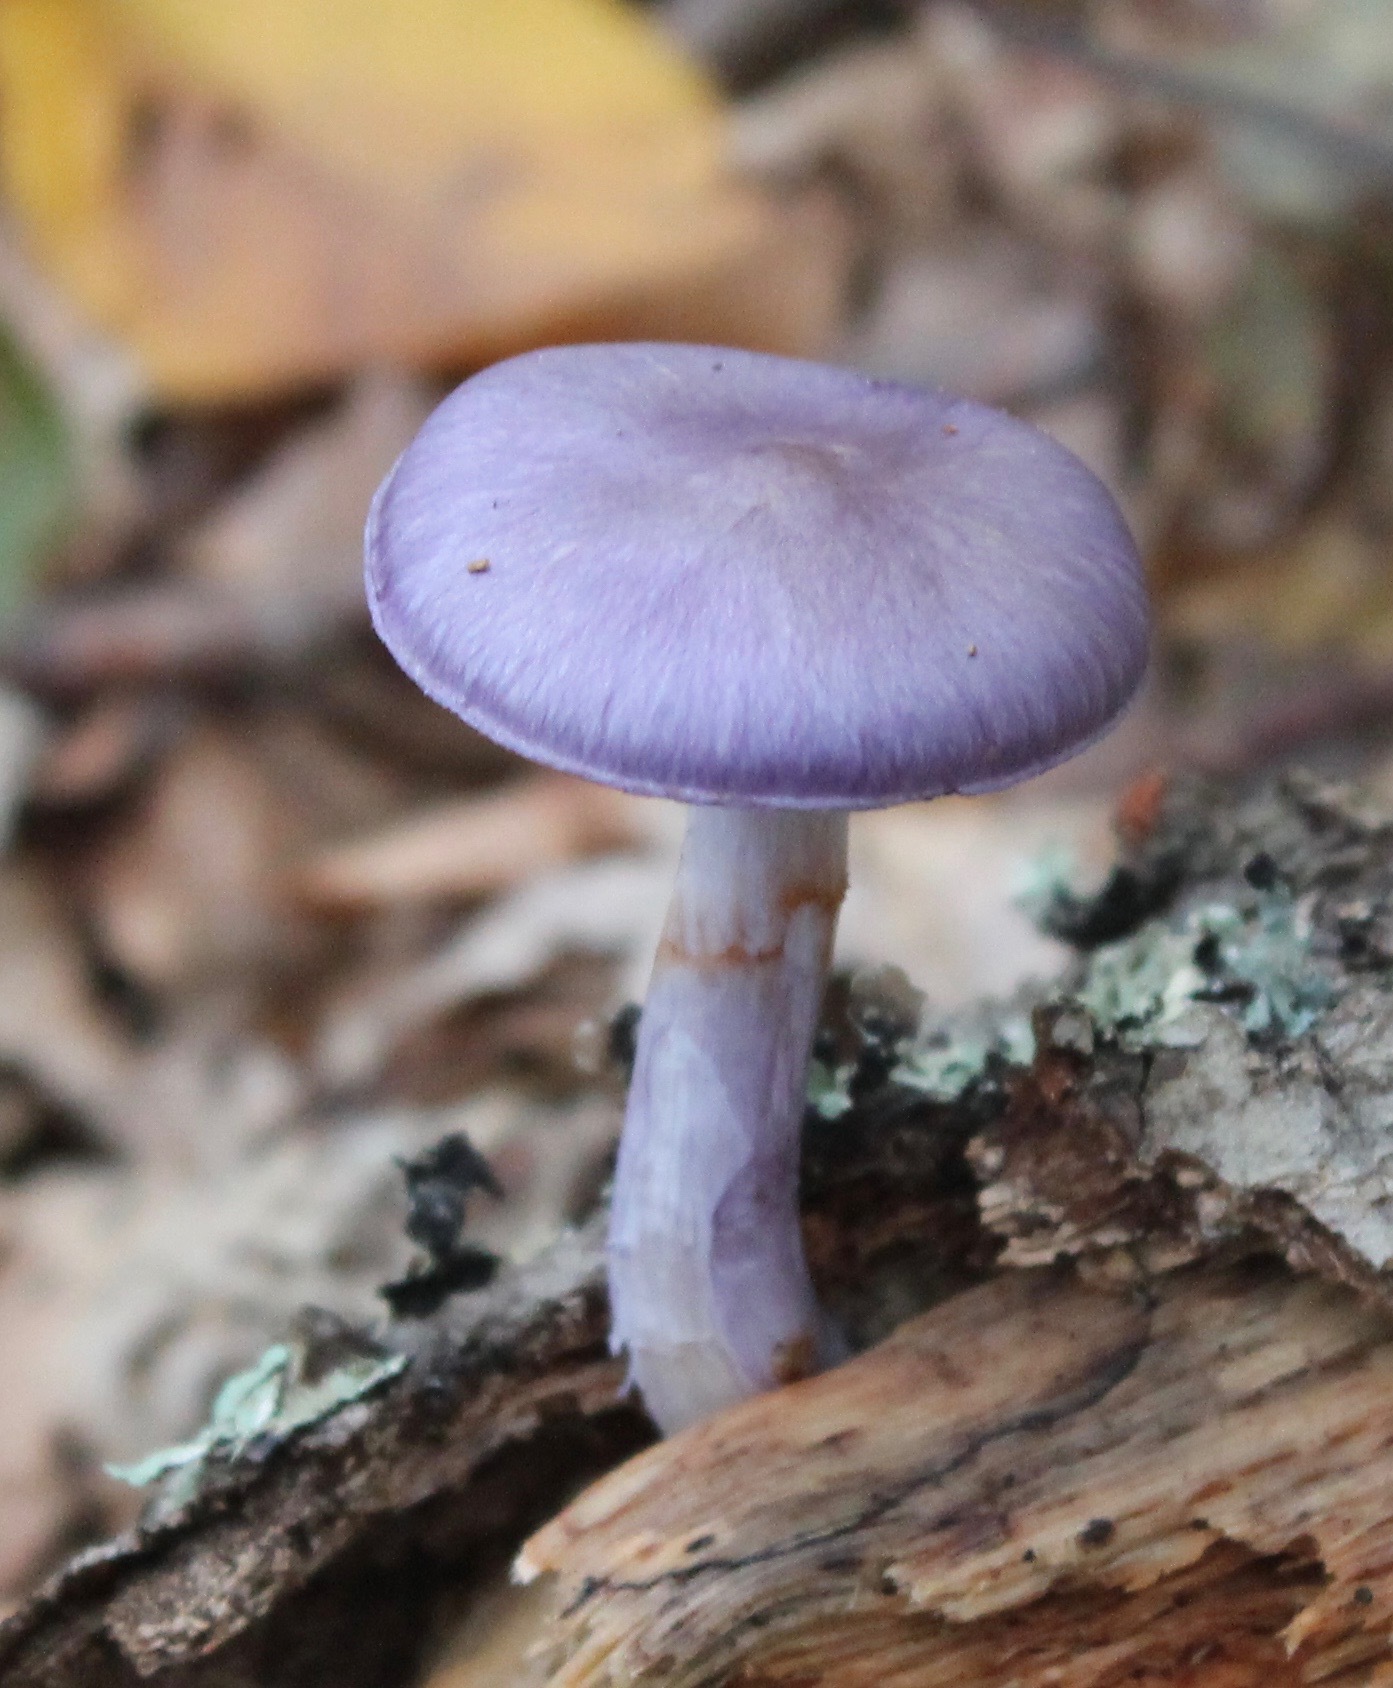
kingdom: Fungi
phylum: Basidiomycota
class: Agaricomycetes
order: Agaricales
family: Cortinariaceae
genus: Cortinarius
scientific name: Cortinarius iodes
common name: Viscid violet cort
